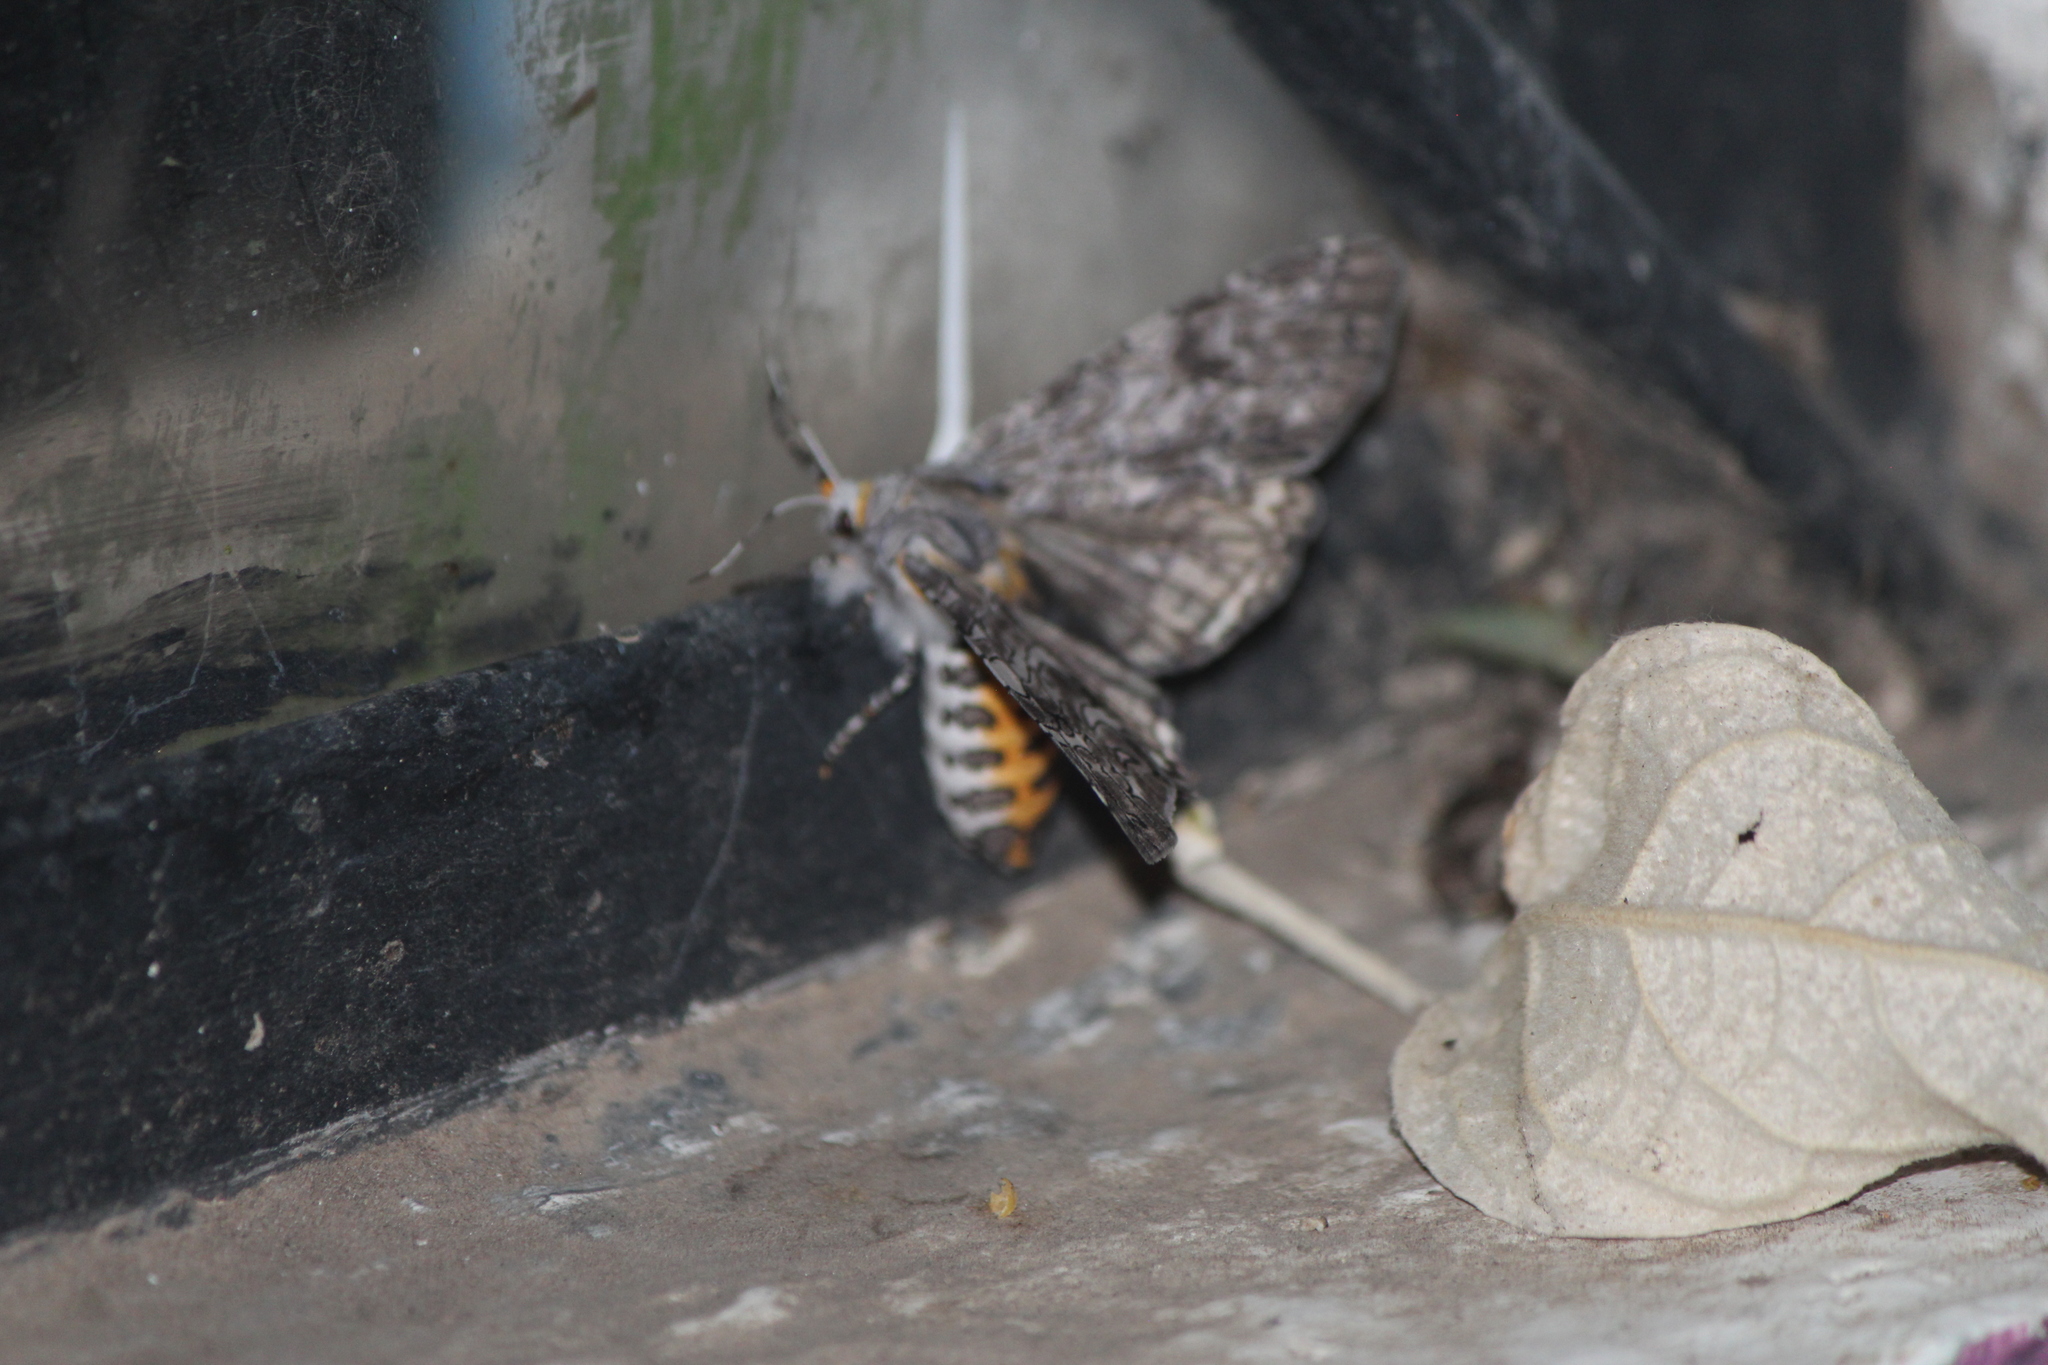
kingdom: Animalia
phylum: Arthropoda
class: Insecta
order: Lepidoptera
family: Erebidae
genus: Hypercompe
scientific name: Hypercompe suffusa
